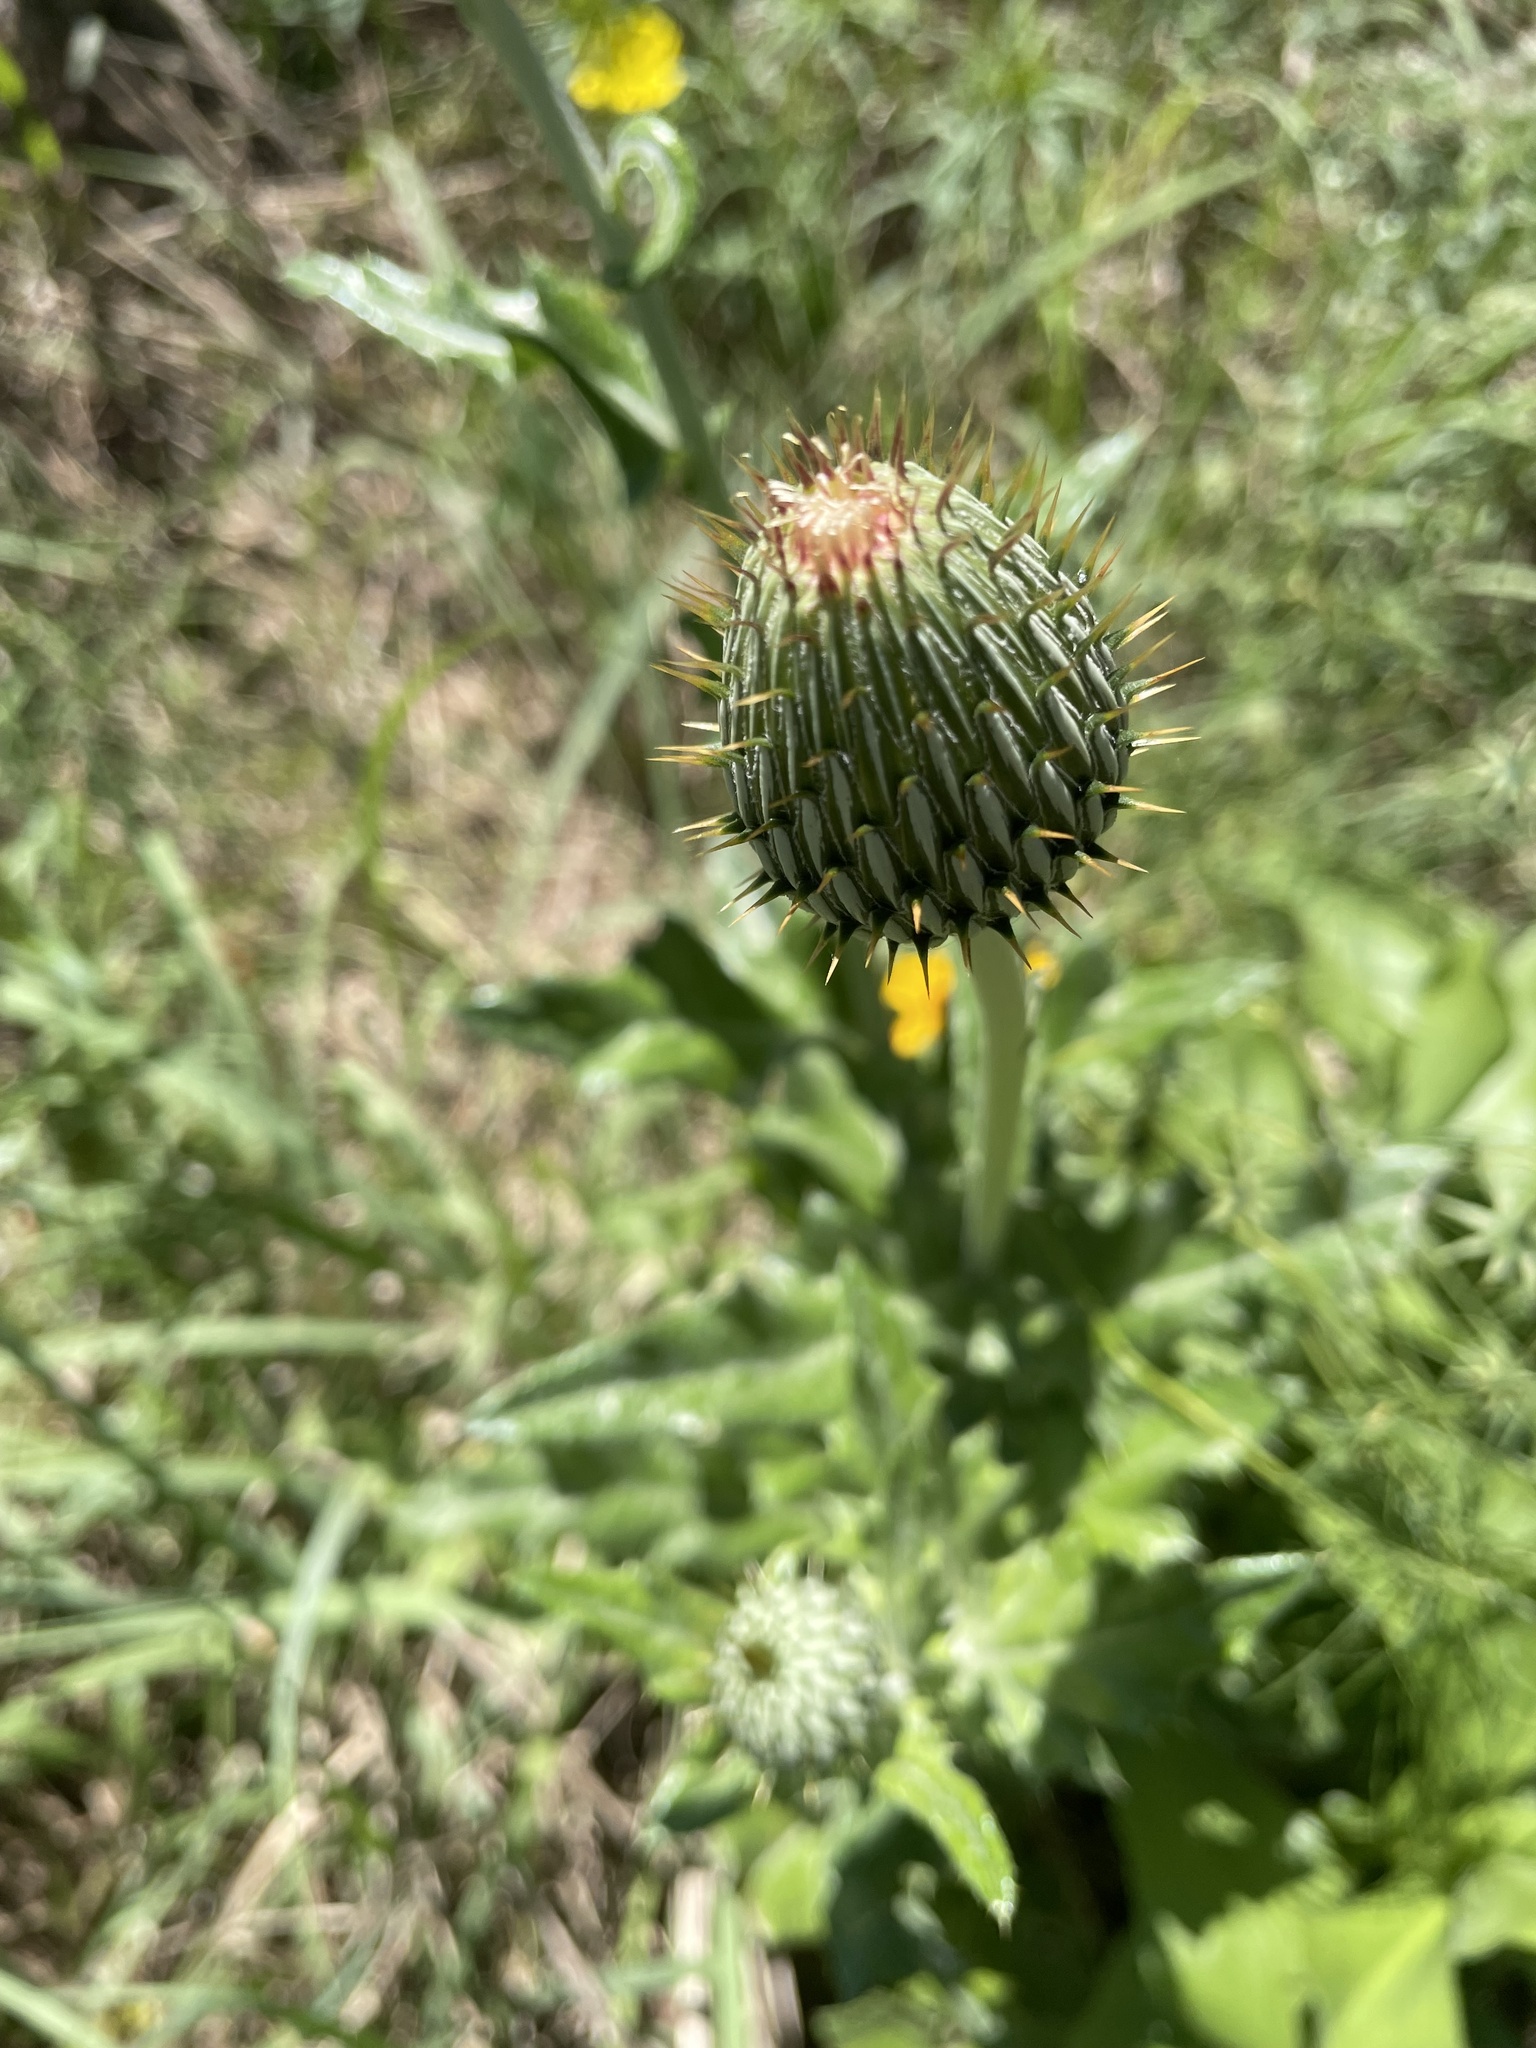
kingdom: Plantae
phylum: Tracheophyta
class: Magnoliopsida
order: Asterales
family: Asteraceae
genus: Cirsium
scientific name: Cirsium texanum
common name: Texas purple thistle
